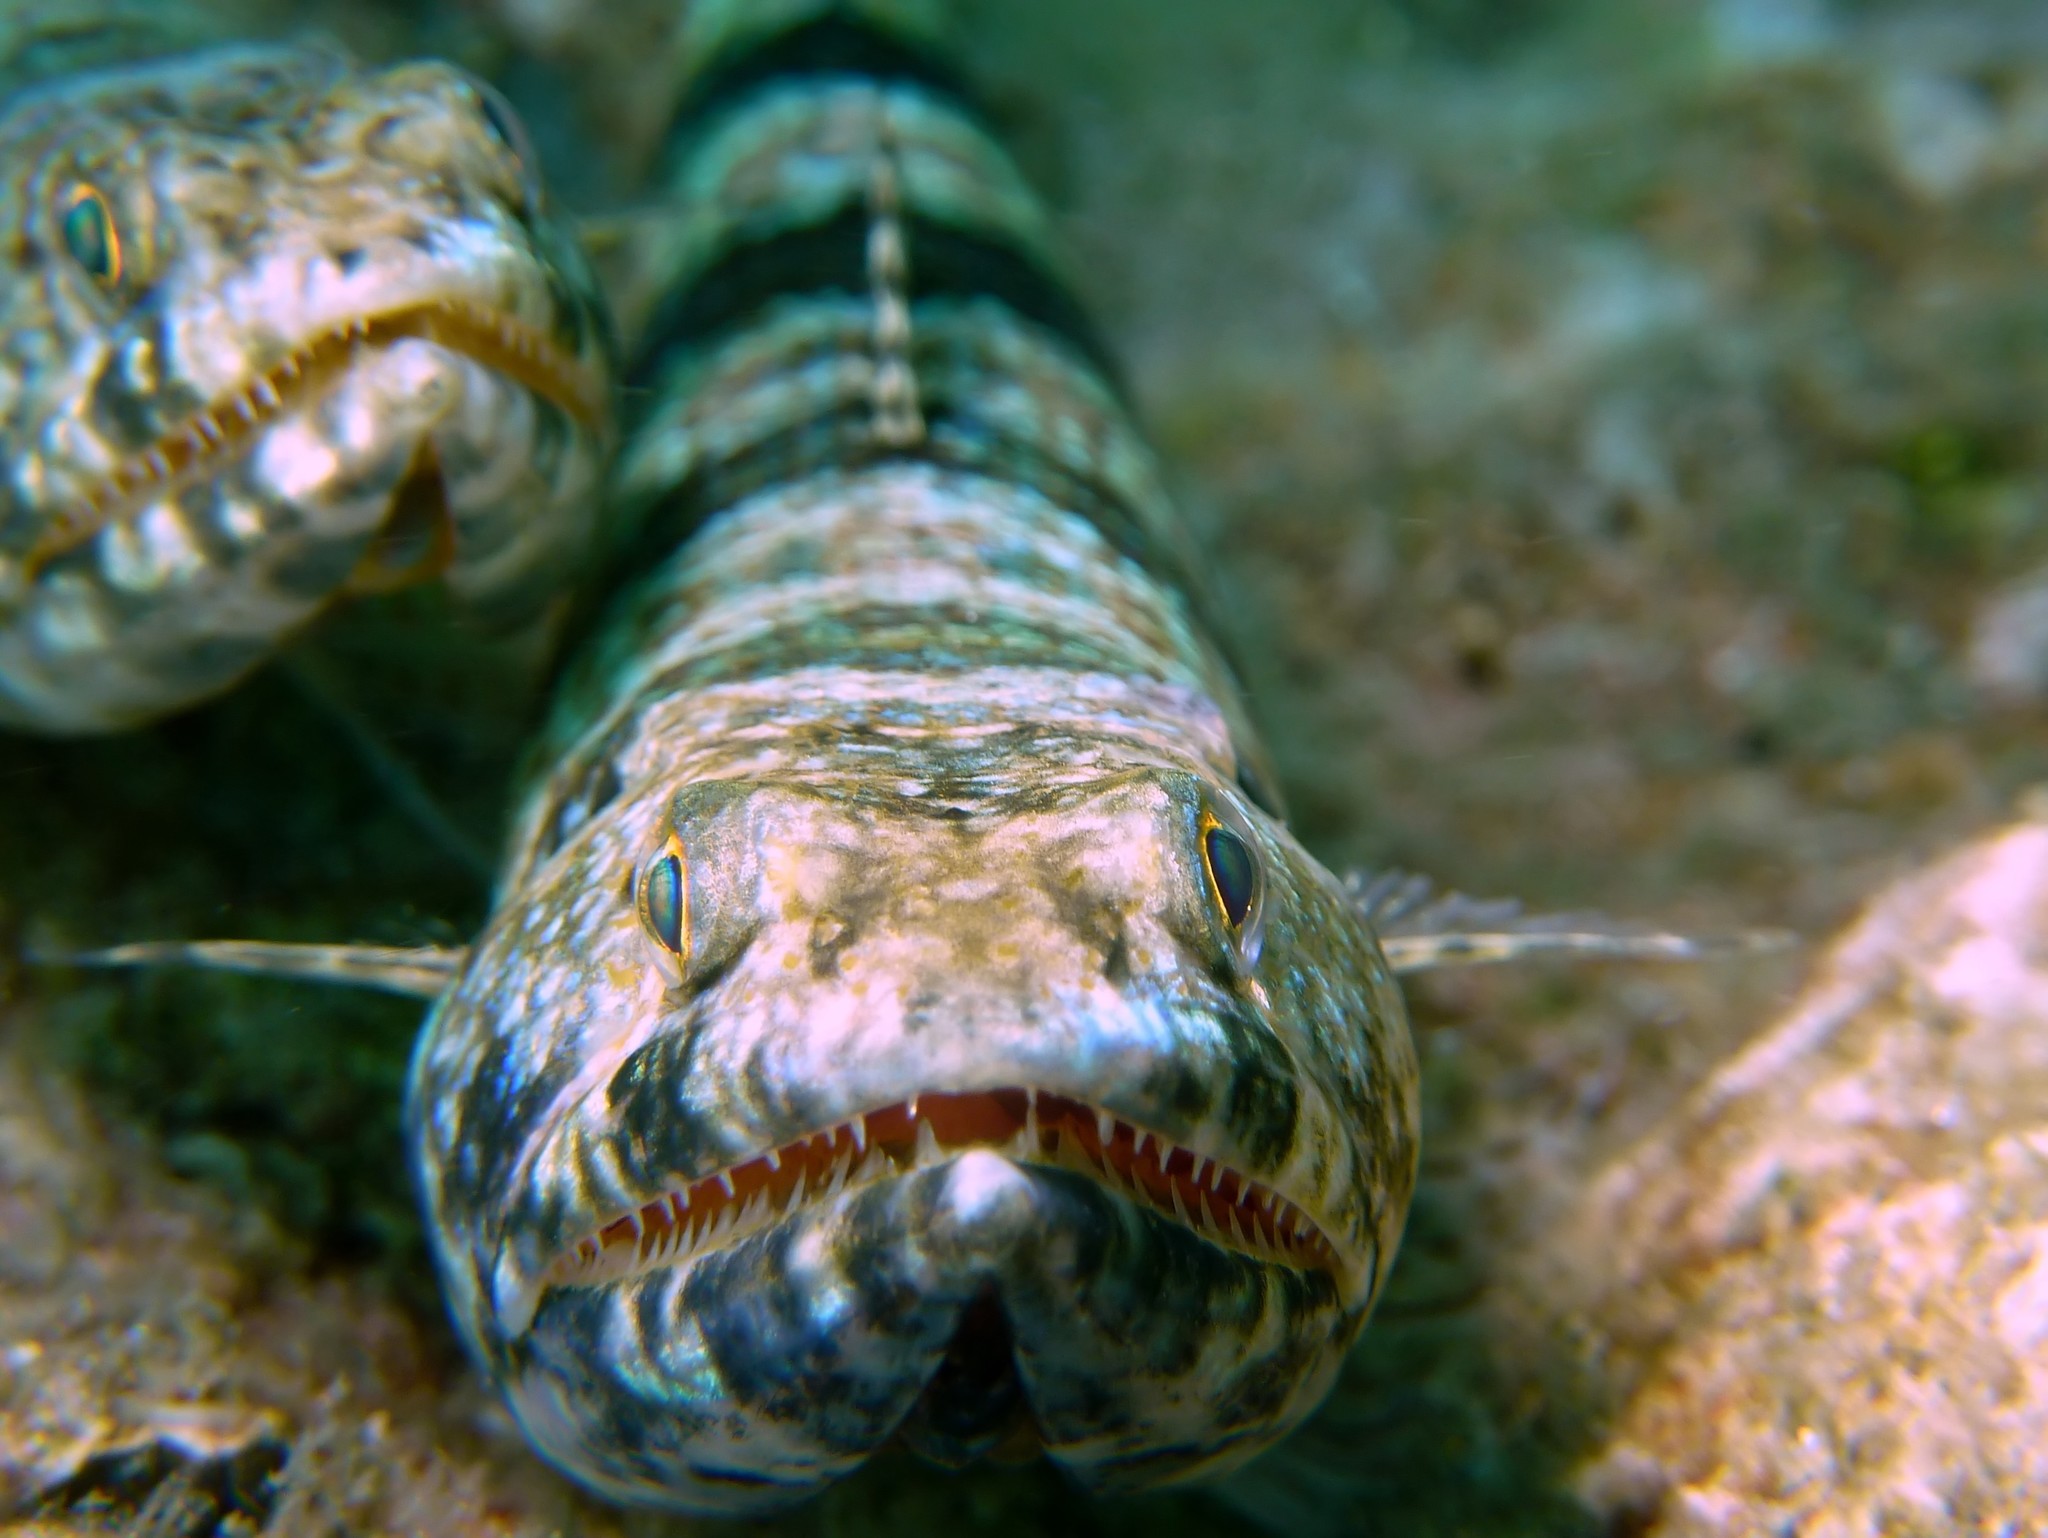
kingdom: Animalia
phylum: Chordata
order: Aulopiformes
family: Synodontidae
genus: Synodus
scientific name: Synodus variegatus
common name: Variegated lizardfish
